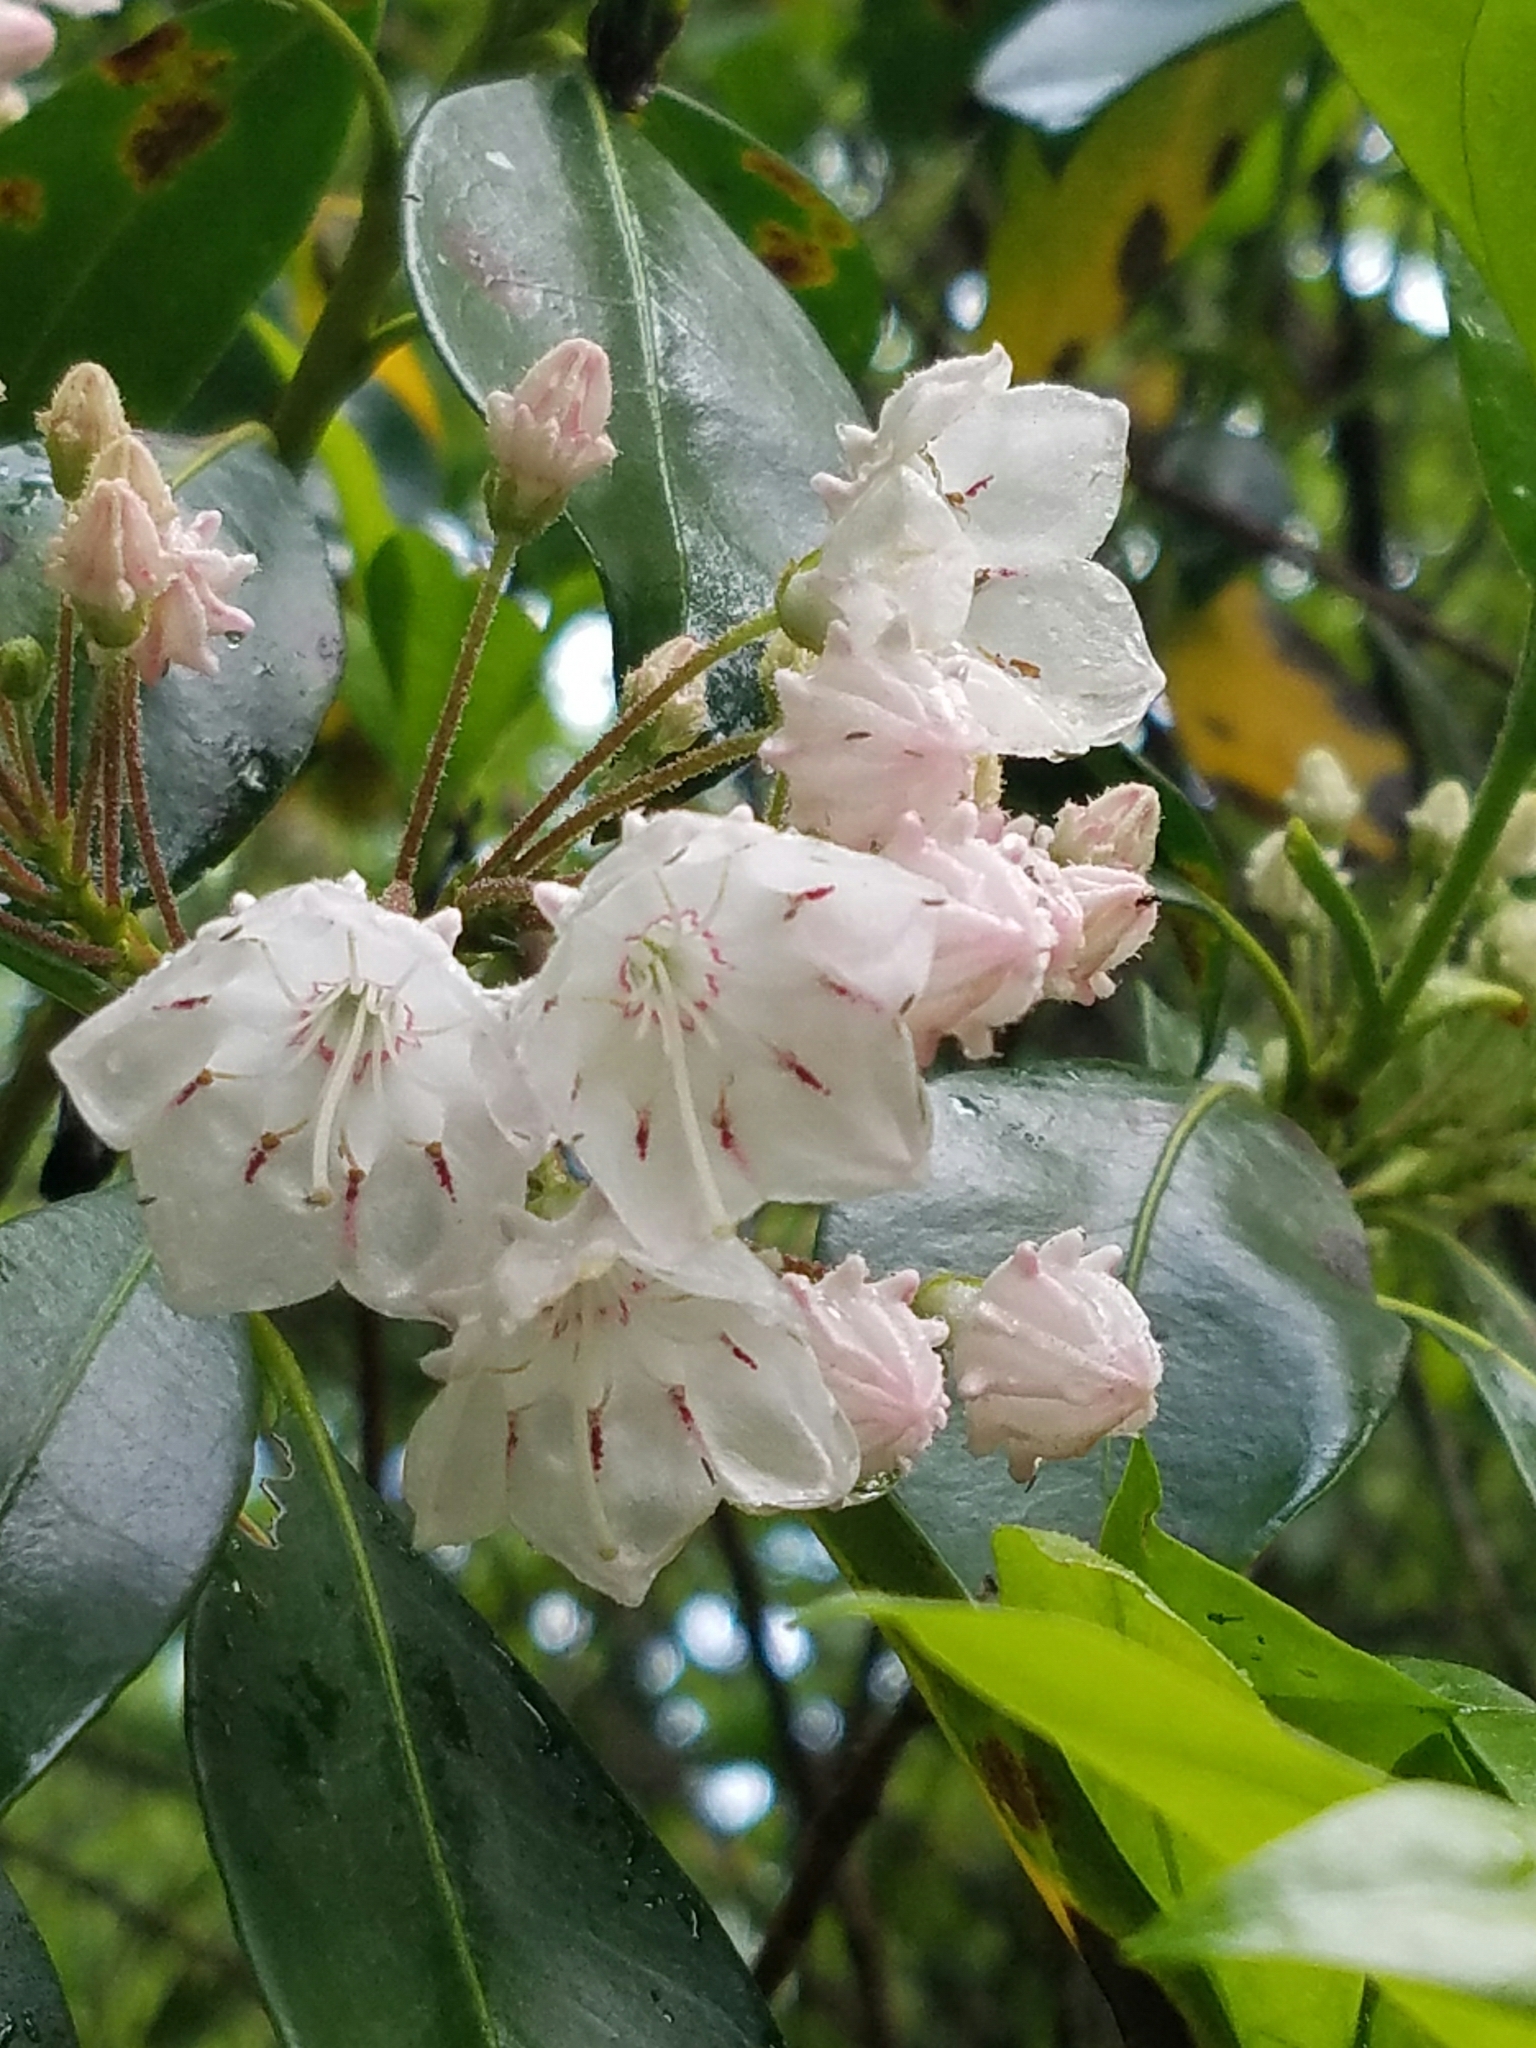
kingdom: Plantae
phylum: Tracheophyta
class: Magnoliopsida
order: Ericales
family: Ericaceae
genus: Kalmia
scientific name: Kalmia latifolia
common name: Mountain-laurel
